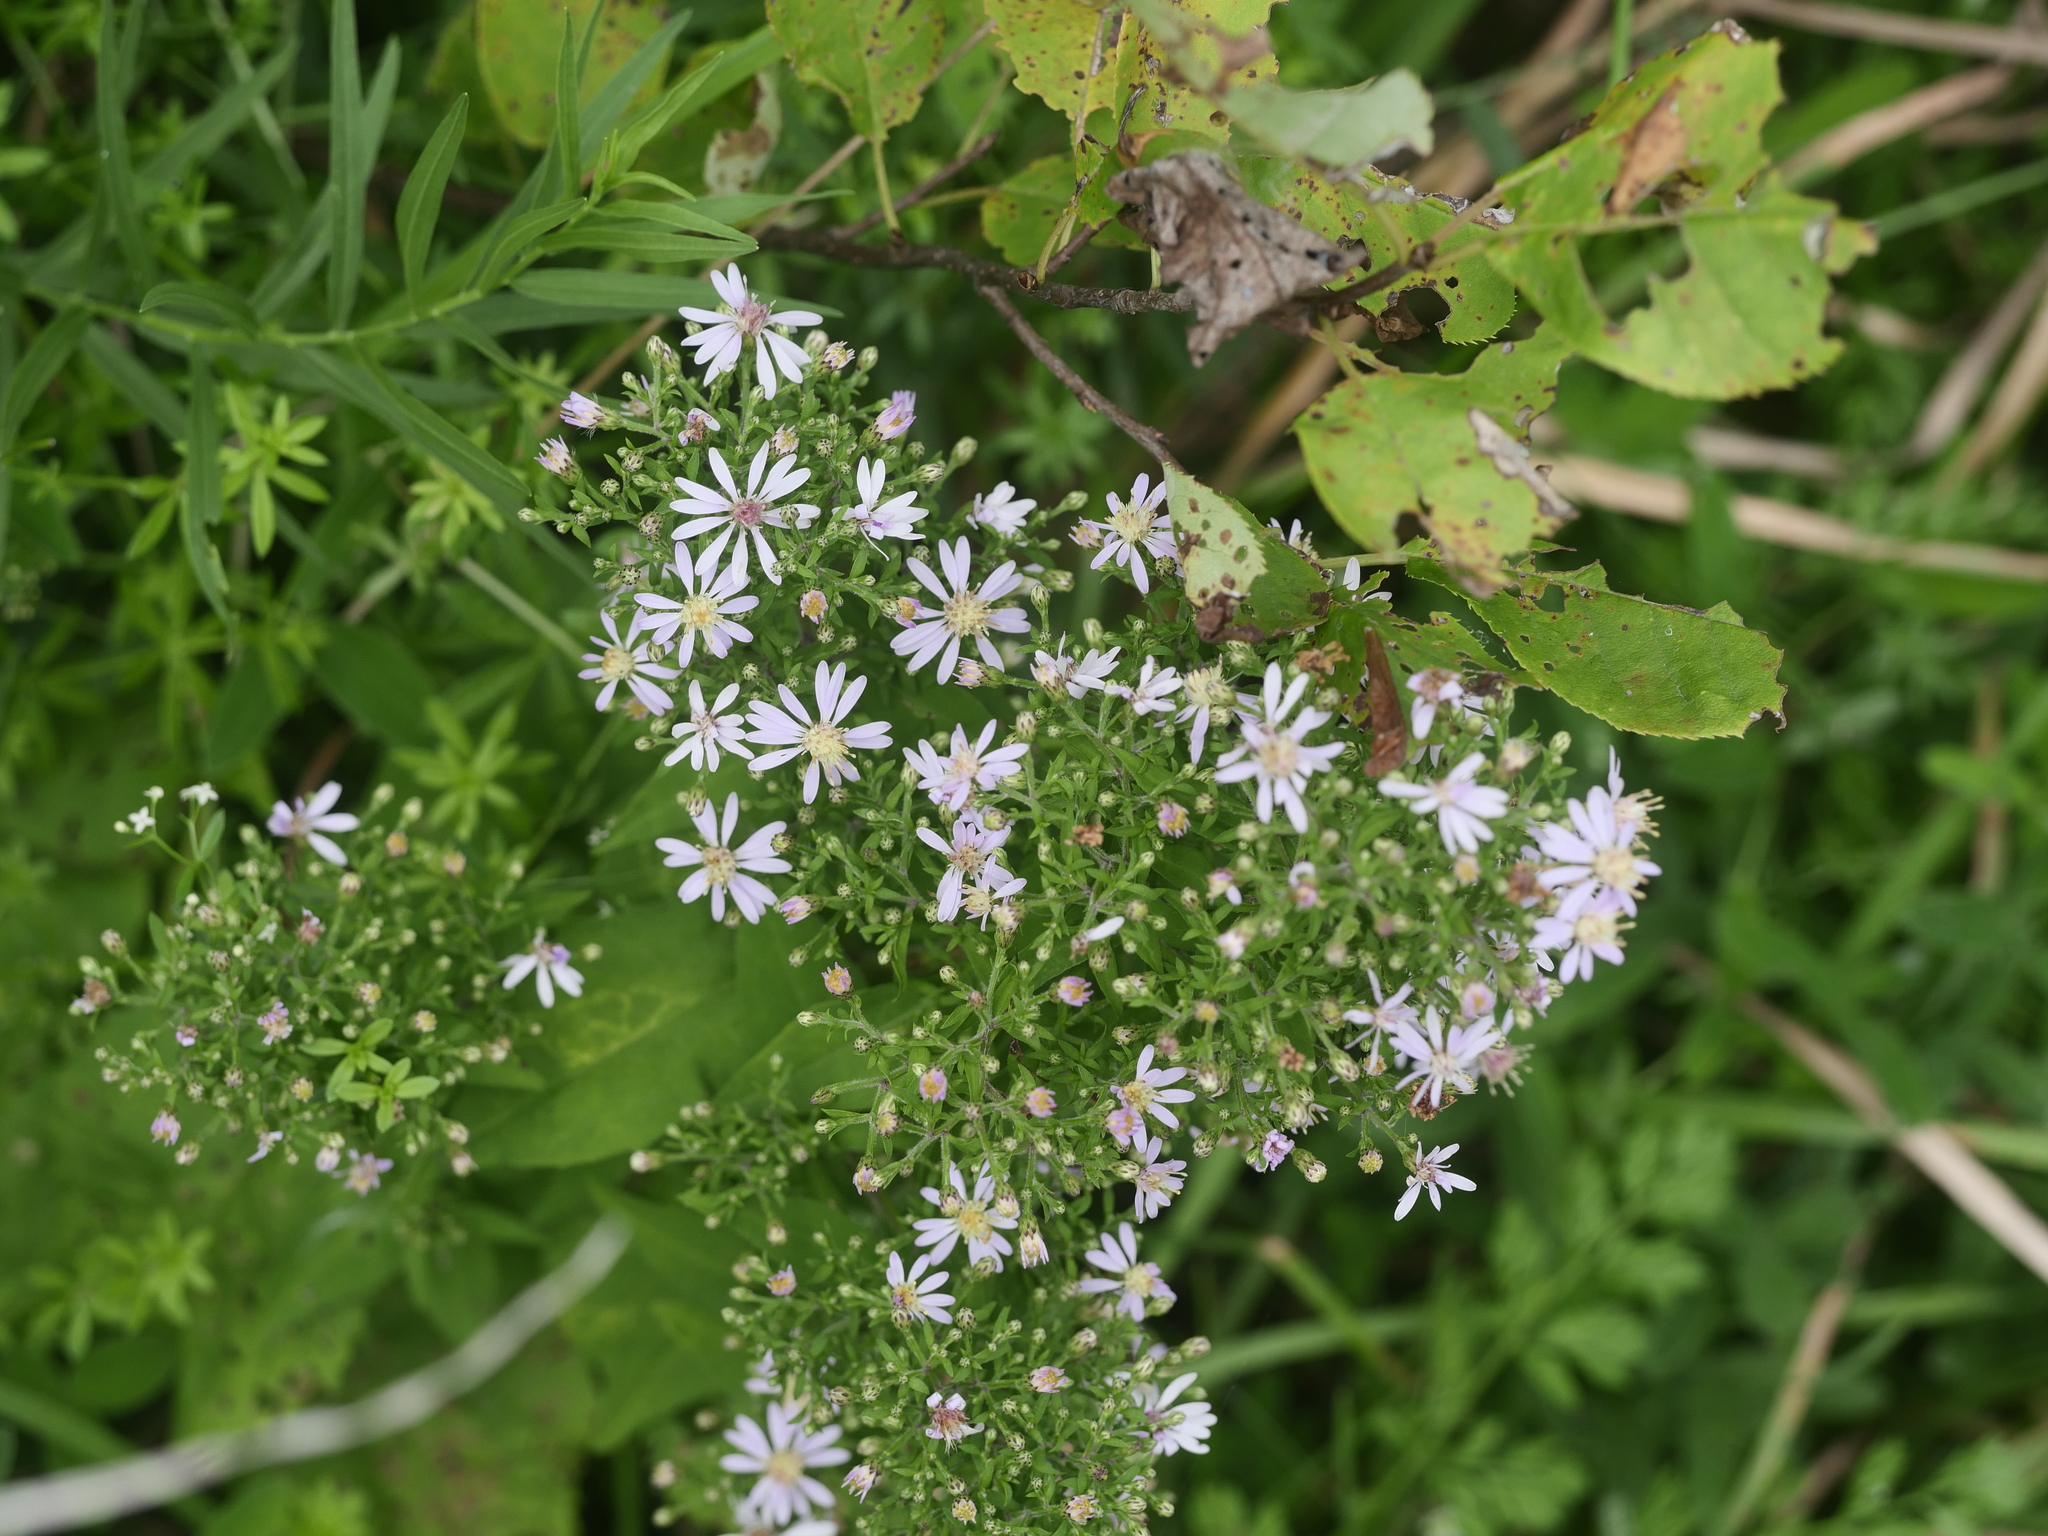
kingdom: Plantae
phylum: Tracheophyta
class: Magnoliopsida
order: Asterales
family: Asteraceae
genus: Symphyotrichum
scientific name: Symphyotrichum cordifolium
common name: Beeweed
